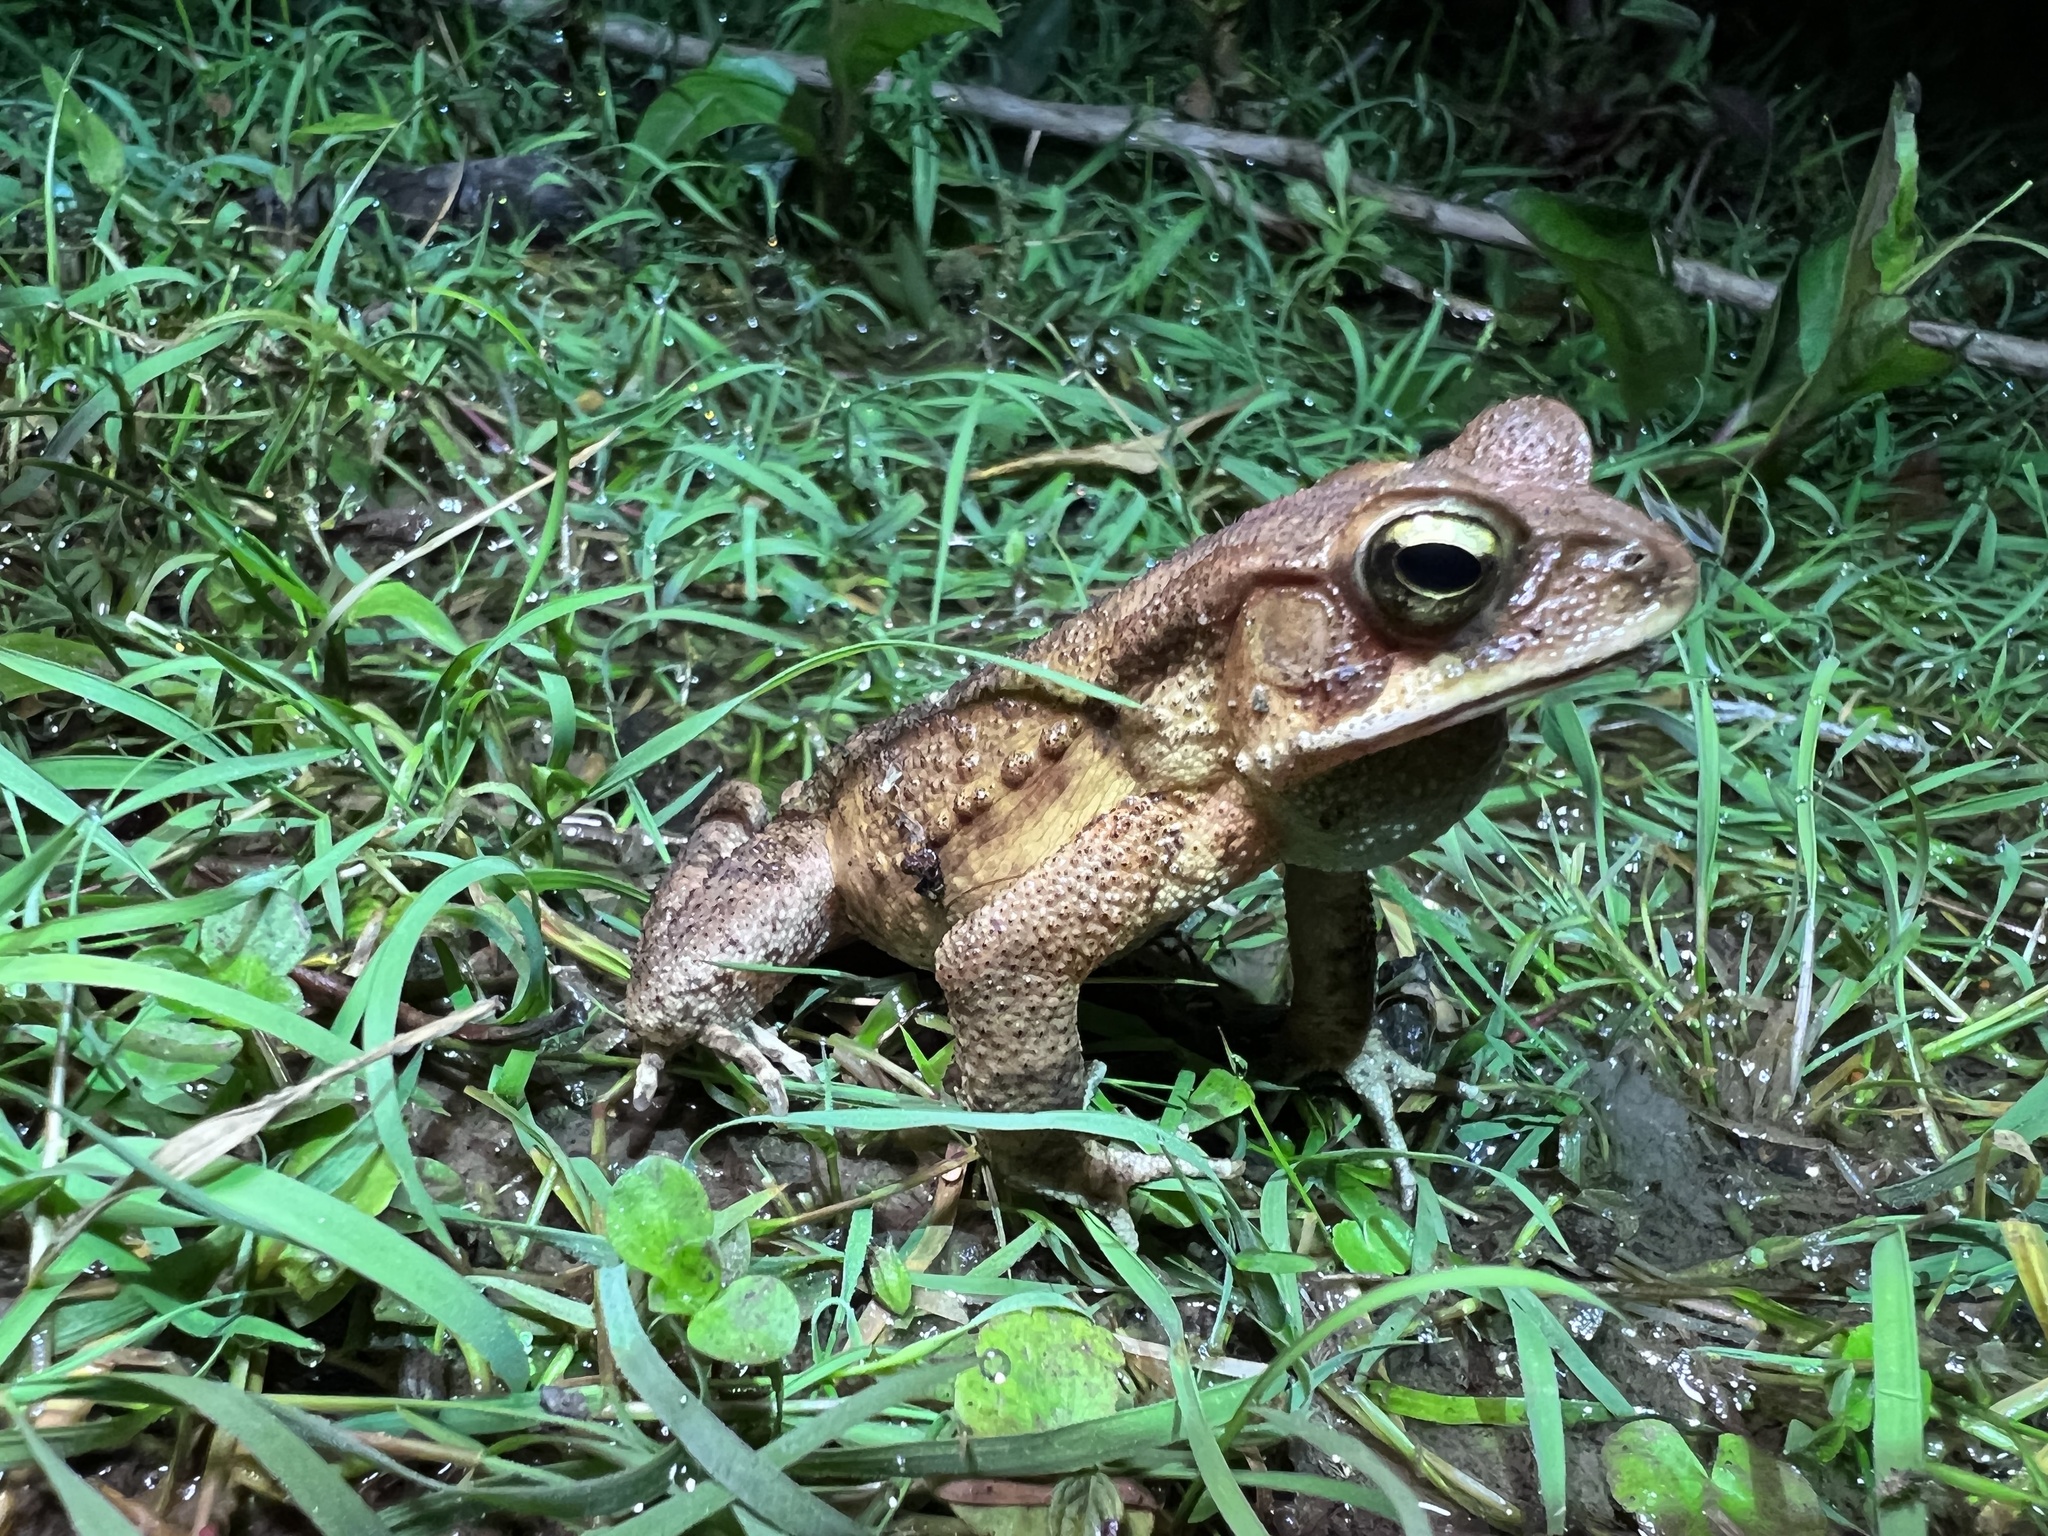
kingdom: Animalia
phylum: Chordata
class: Amphibia
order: Anura
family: Bufonidae
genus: Rhinella
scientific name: Rhinella ornata
